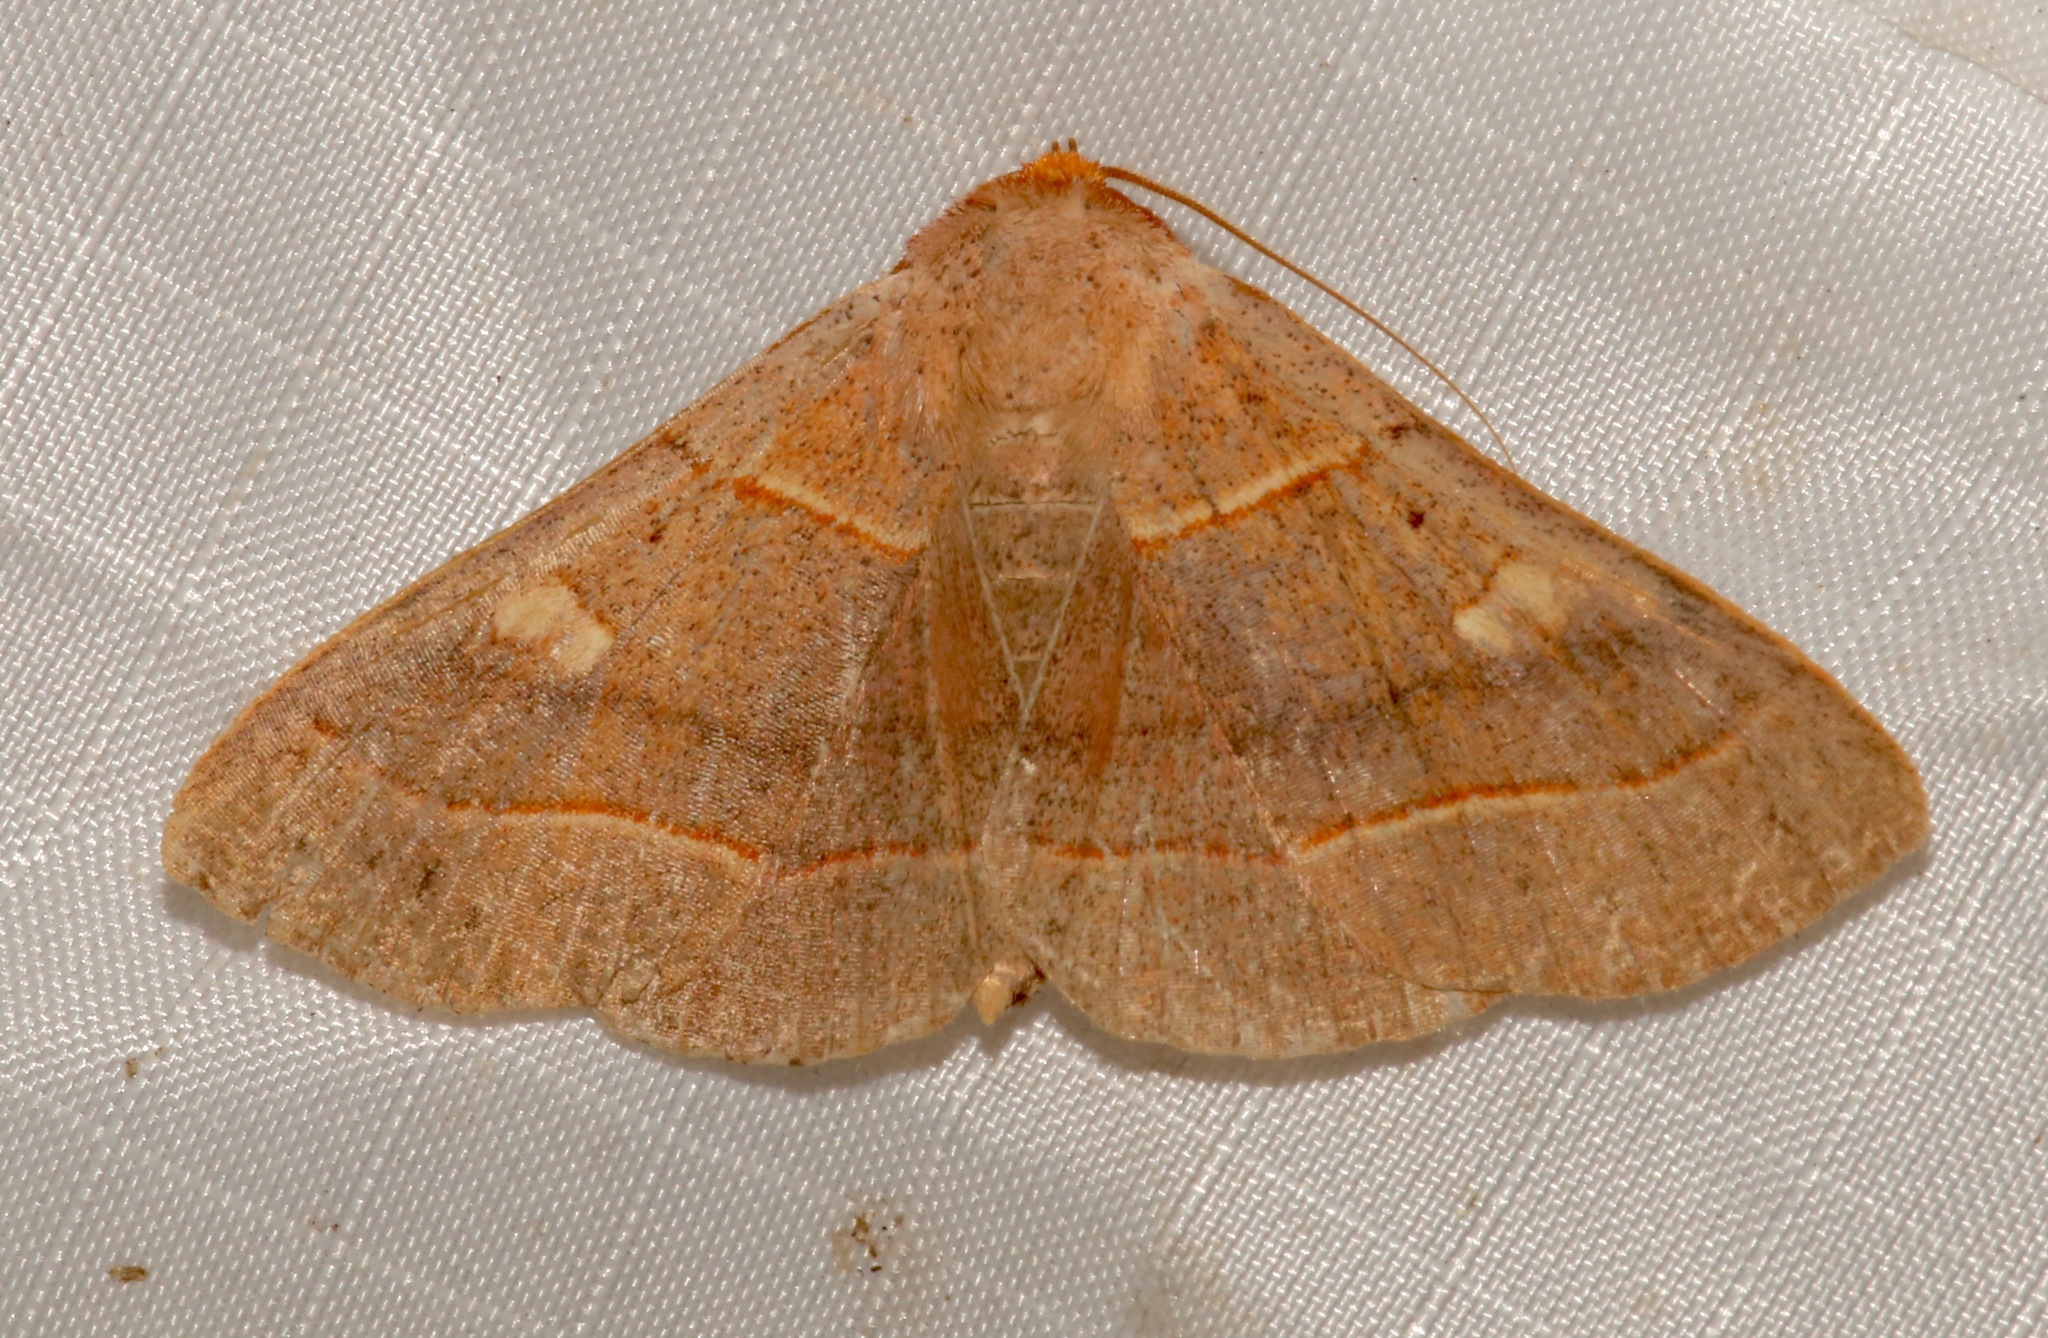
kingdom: Animalia
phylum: Arthropoda
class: Insecta
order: Lepidoptera
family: Erebidae
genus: Panopoda
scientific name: Panopoda rufimargo
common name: Red-lined panopoda moth
